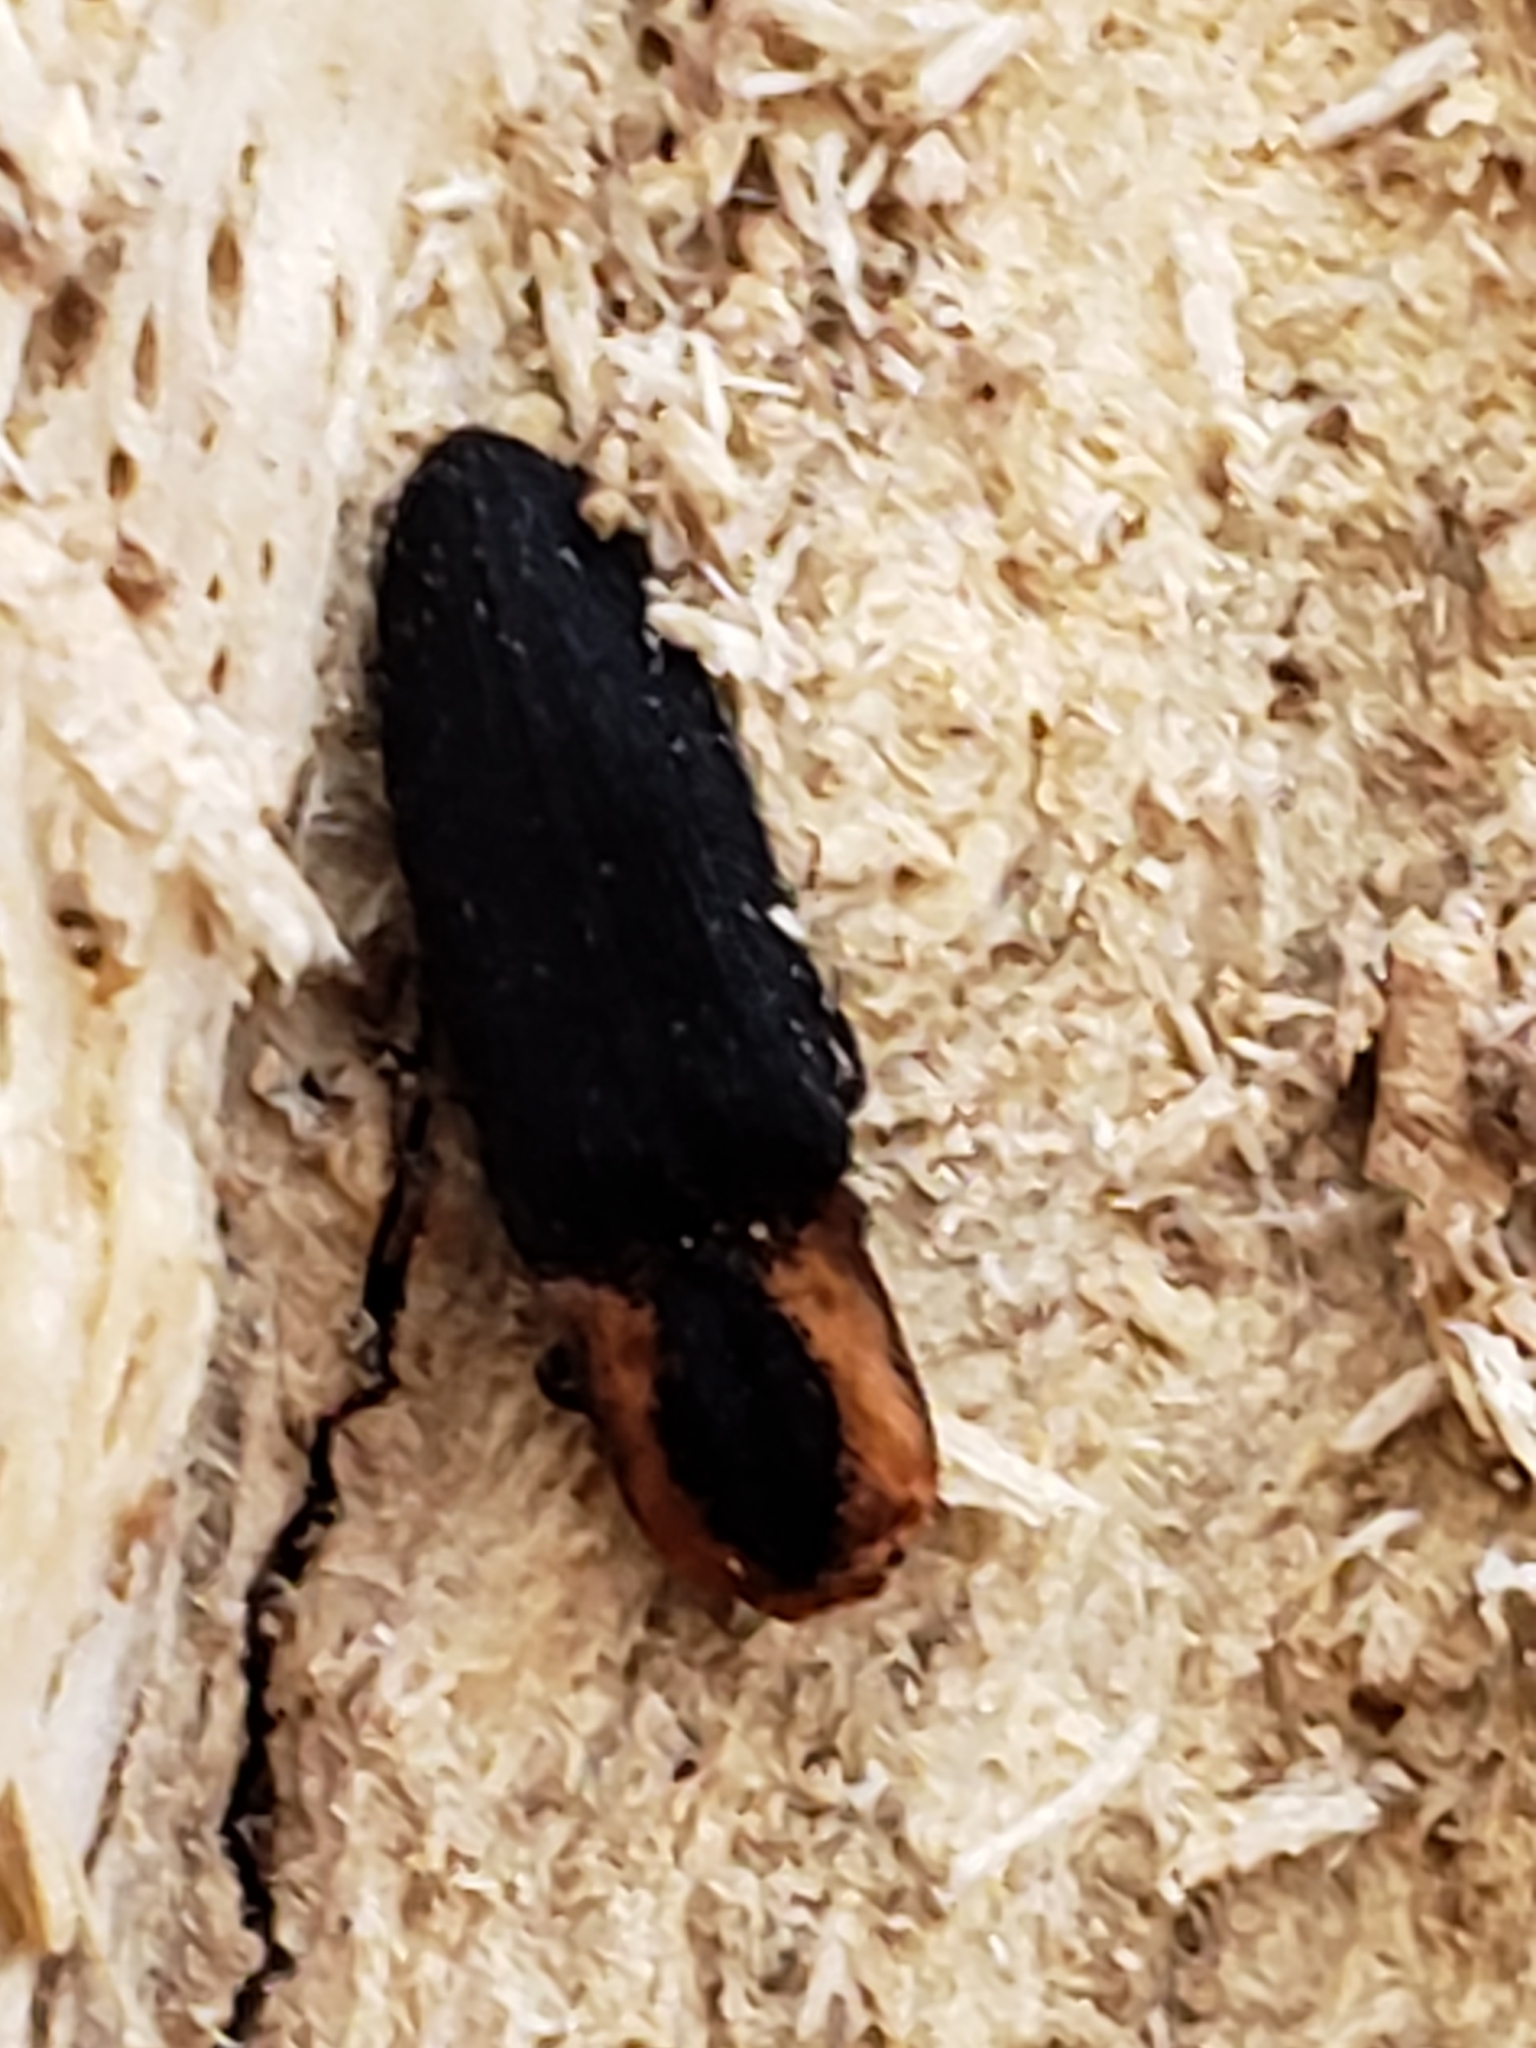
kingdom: Animalia
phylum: Arthropoda
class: Insecta
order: Coleoptera
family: Elateridae
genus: Lacon
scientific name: Lacon discoideus
